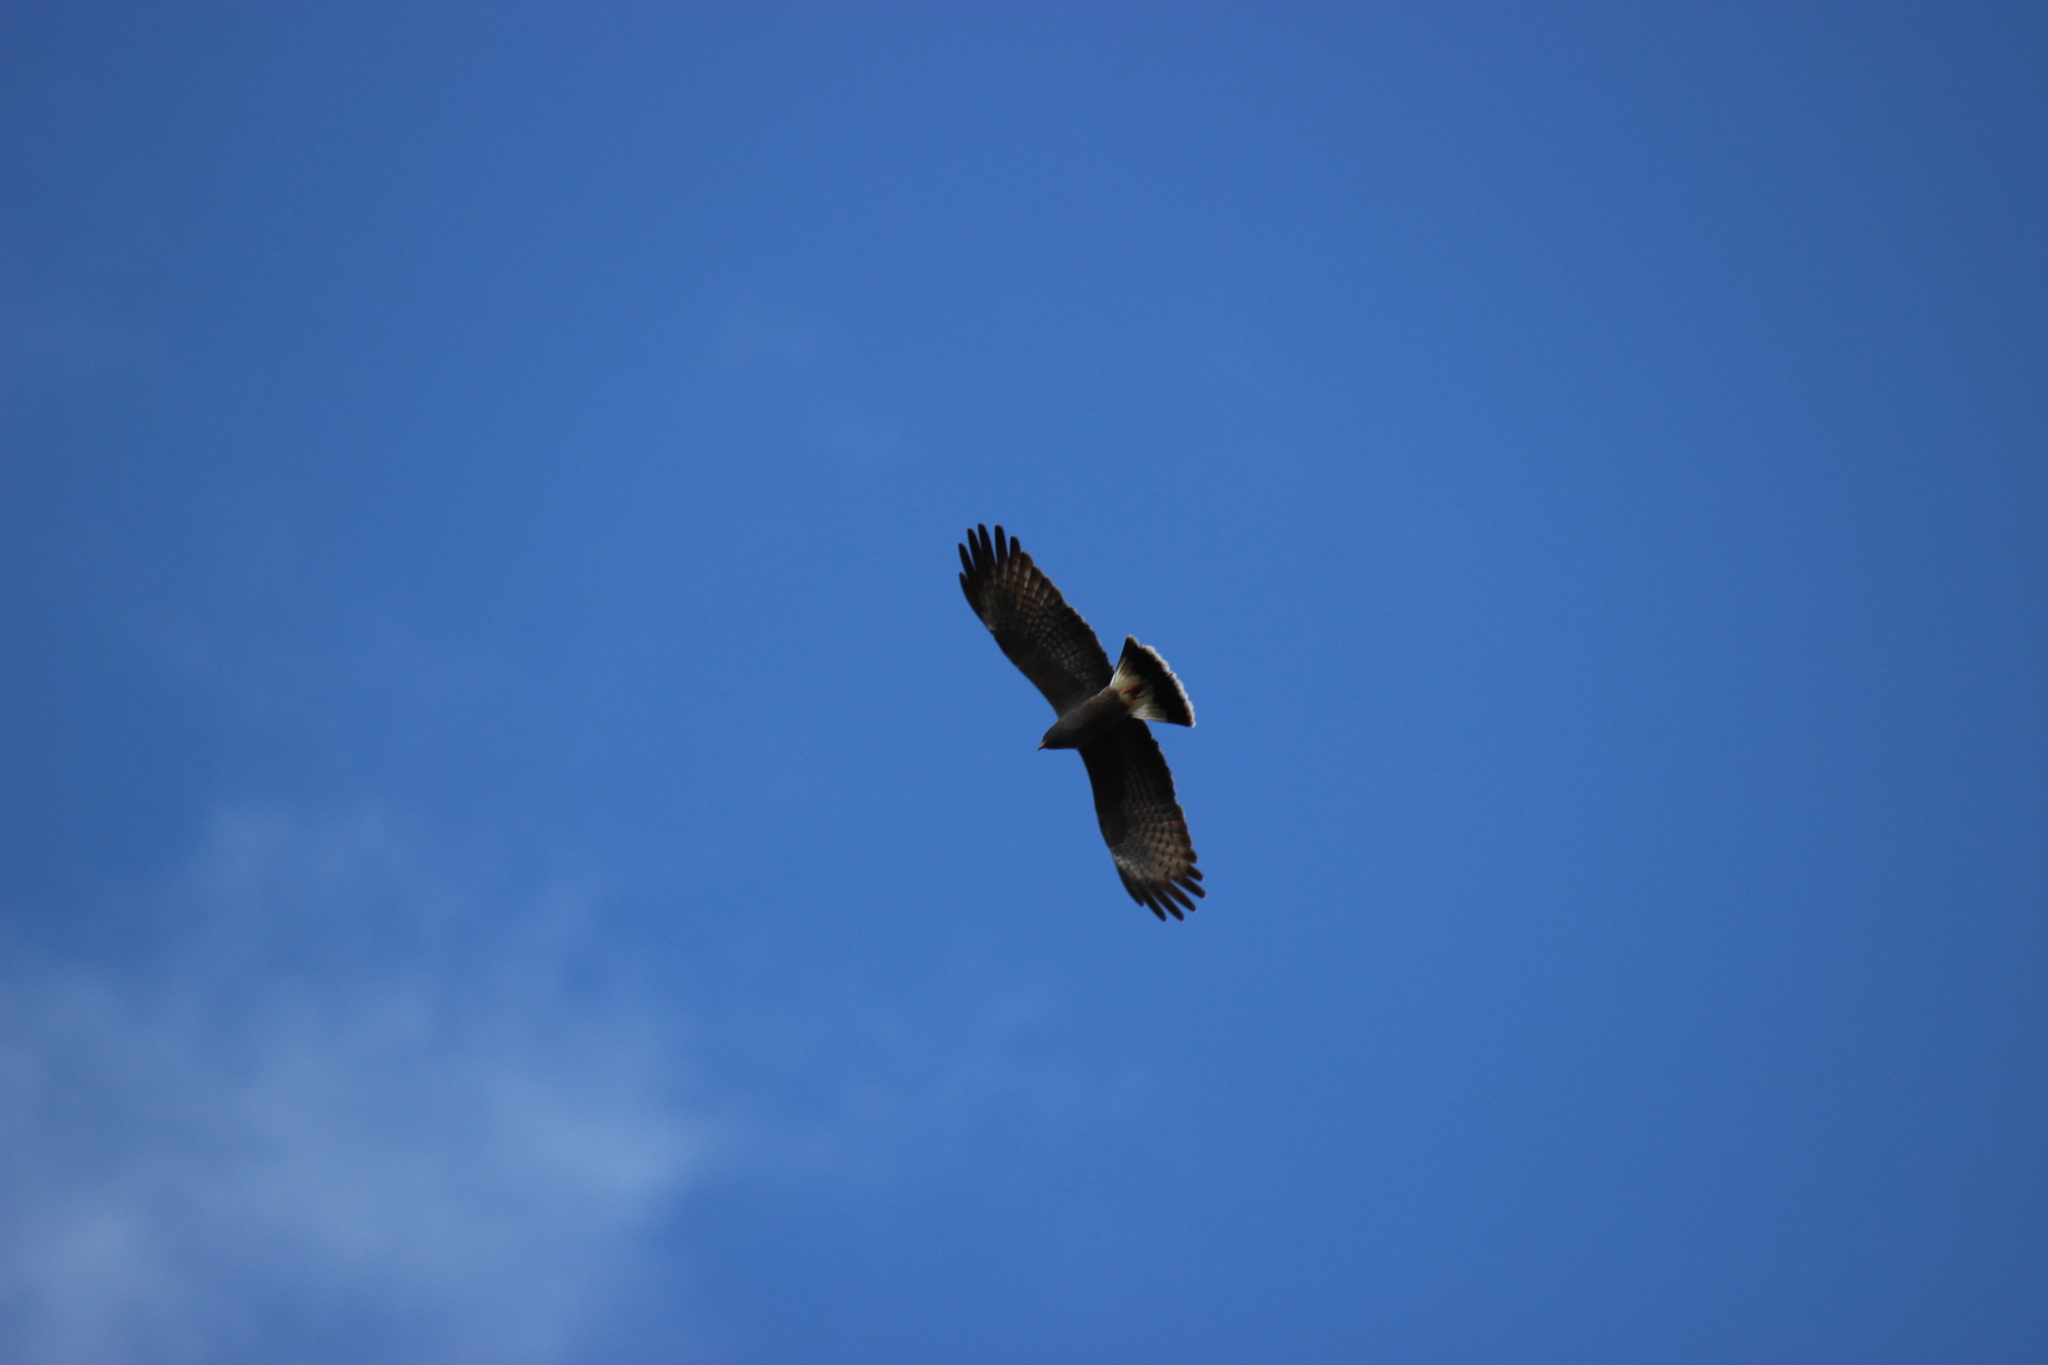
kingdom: Animalia
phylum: Chordata
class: Aves
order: Accipitriformes
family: Accipitridae
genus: Rostrhamus
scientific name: Rostrhamus sociabilis
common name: Snail kite
